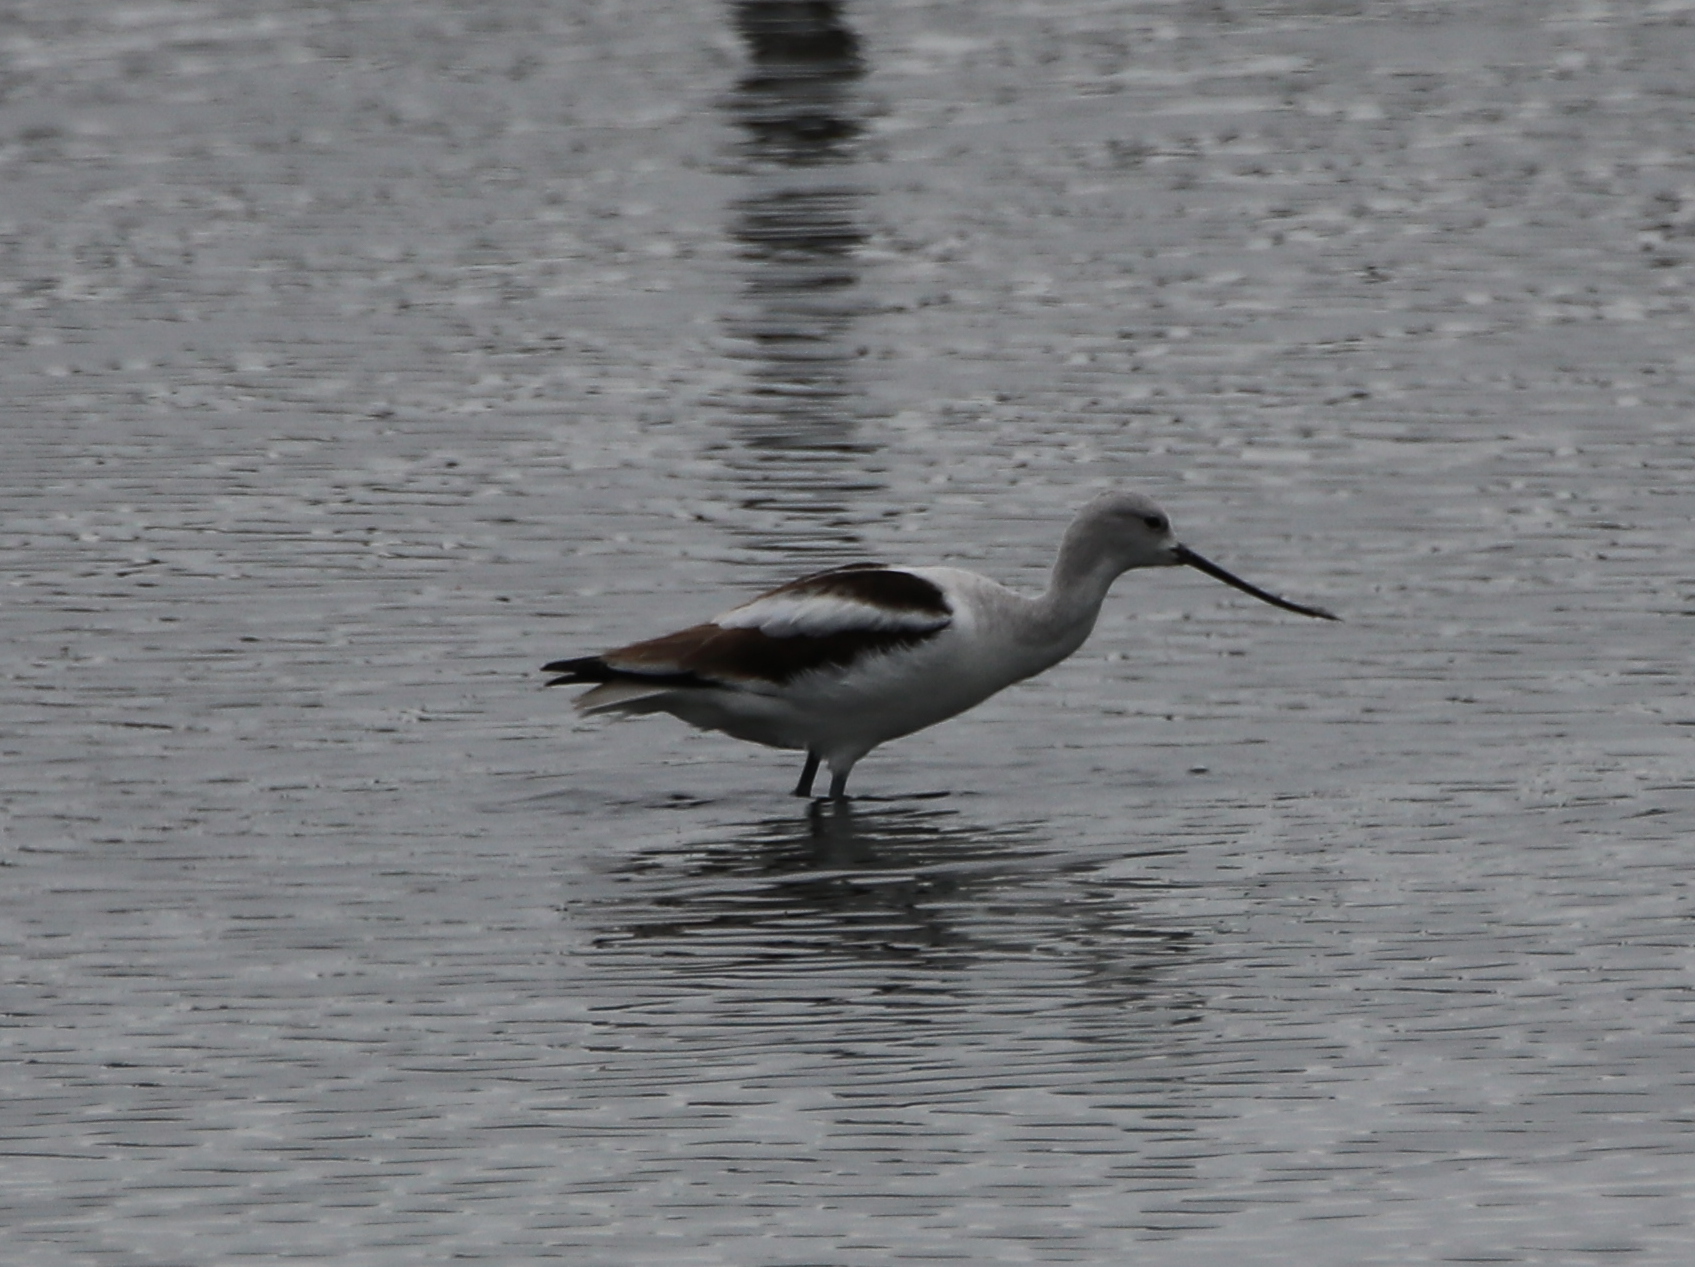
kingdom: Animalia
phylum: Chordata
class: Aves
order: Charadriiformes
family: Recurvirostridae
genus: Recurvirostra
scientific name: Recurvirostra americana
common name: American avocet
